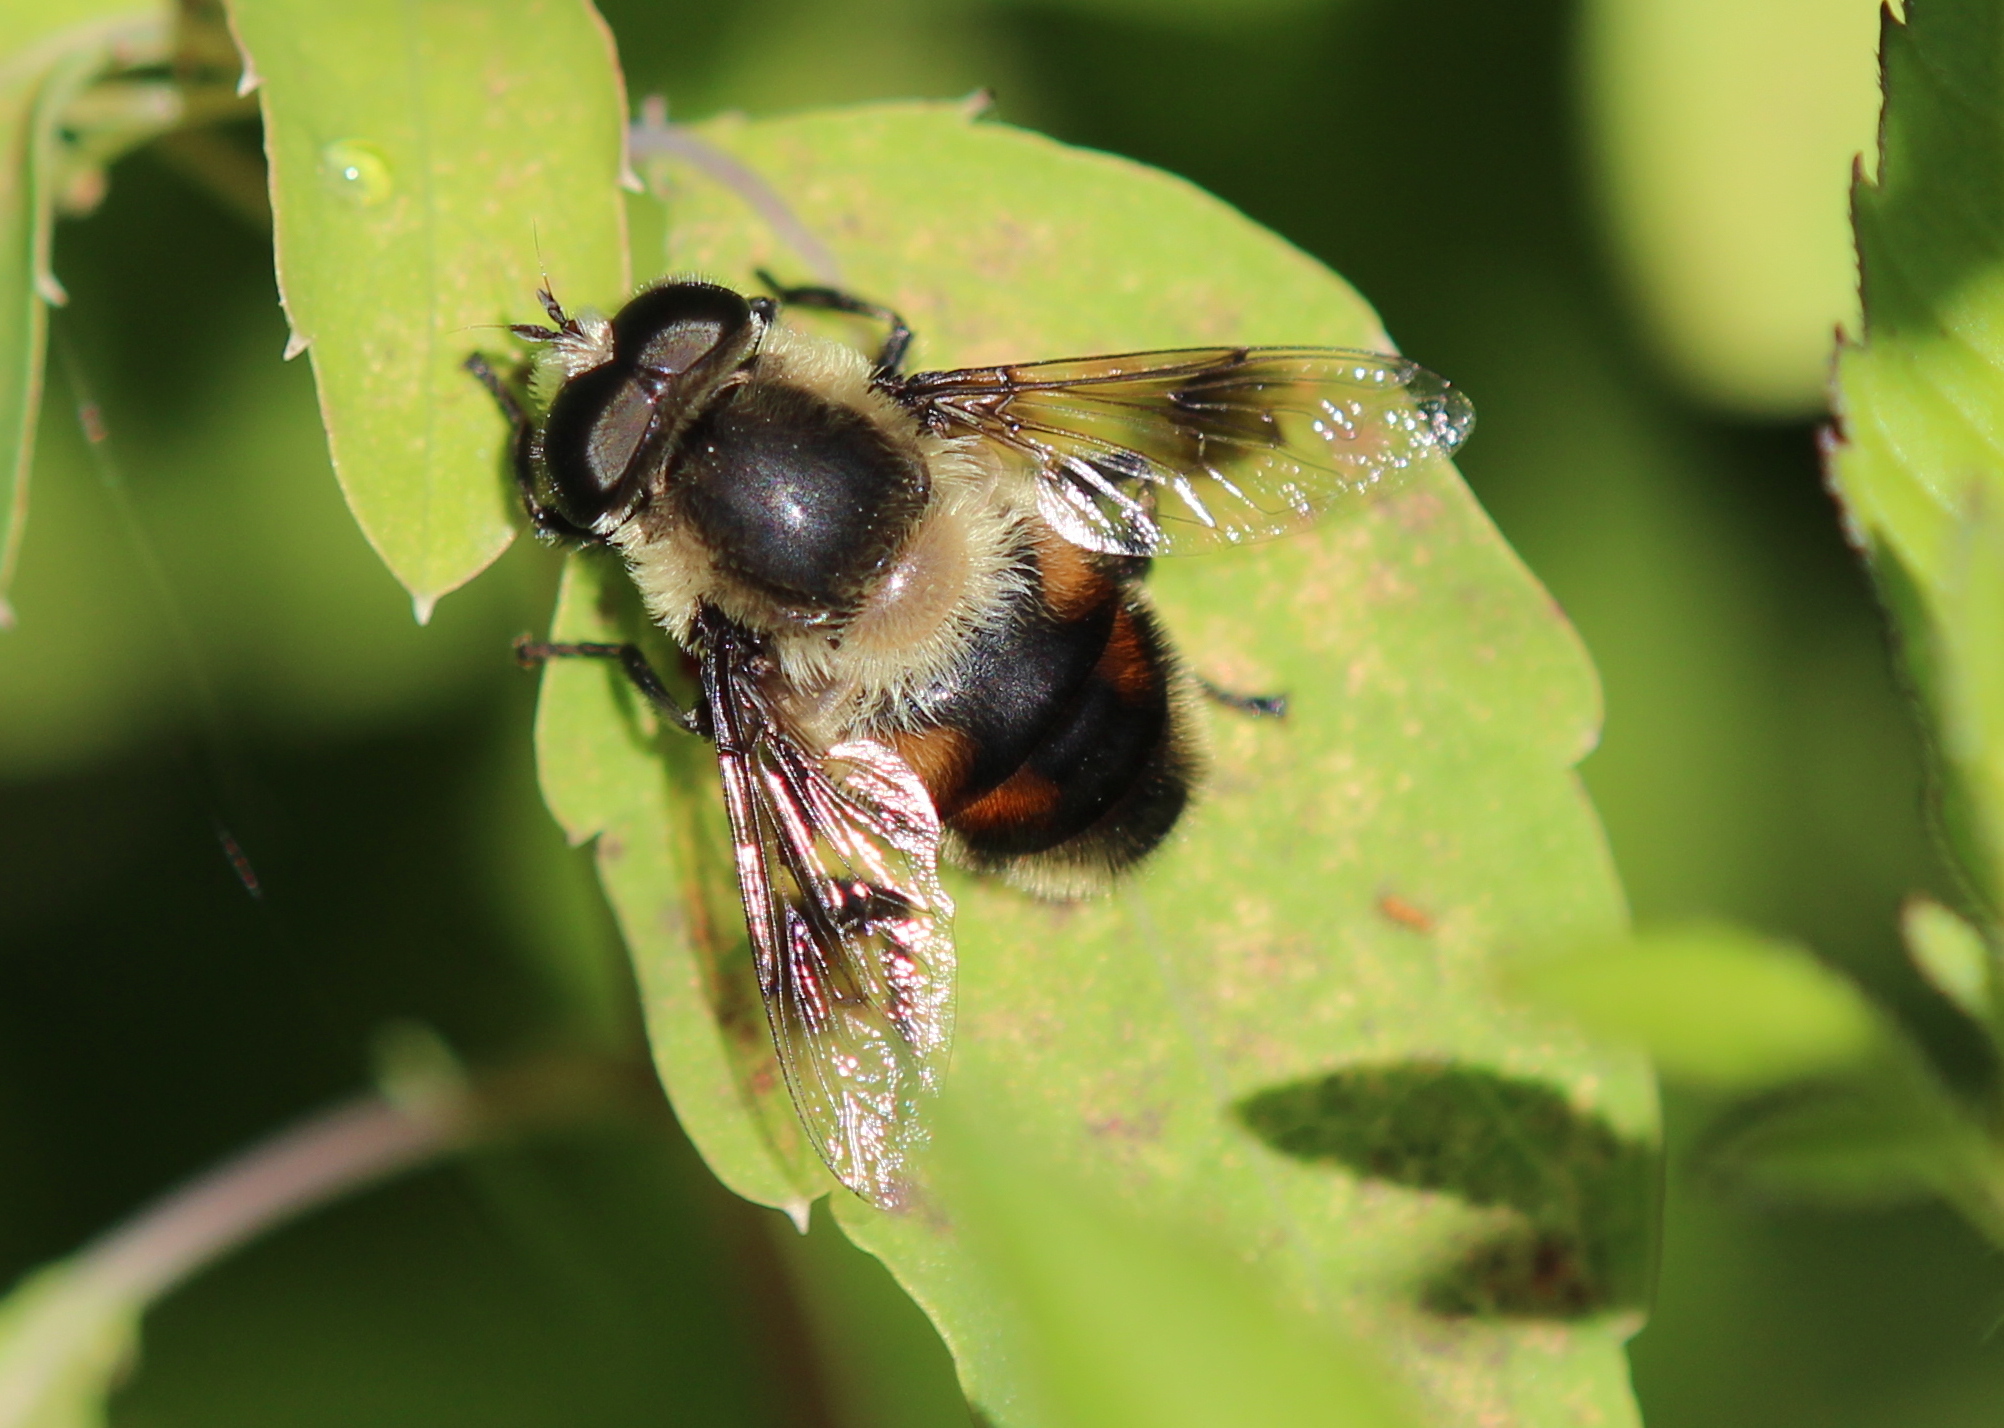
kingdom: Animalia
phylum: Arthropoda
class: Insecta
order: Diptera
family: Syrphidae
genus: Eristalis
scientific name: Eristalis anthophorina
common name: Orange-spotted drone fly
